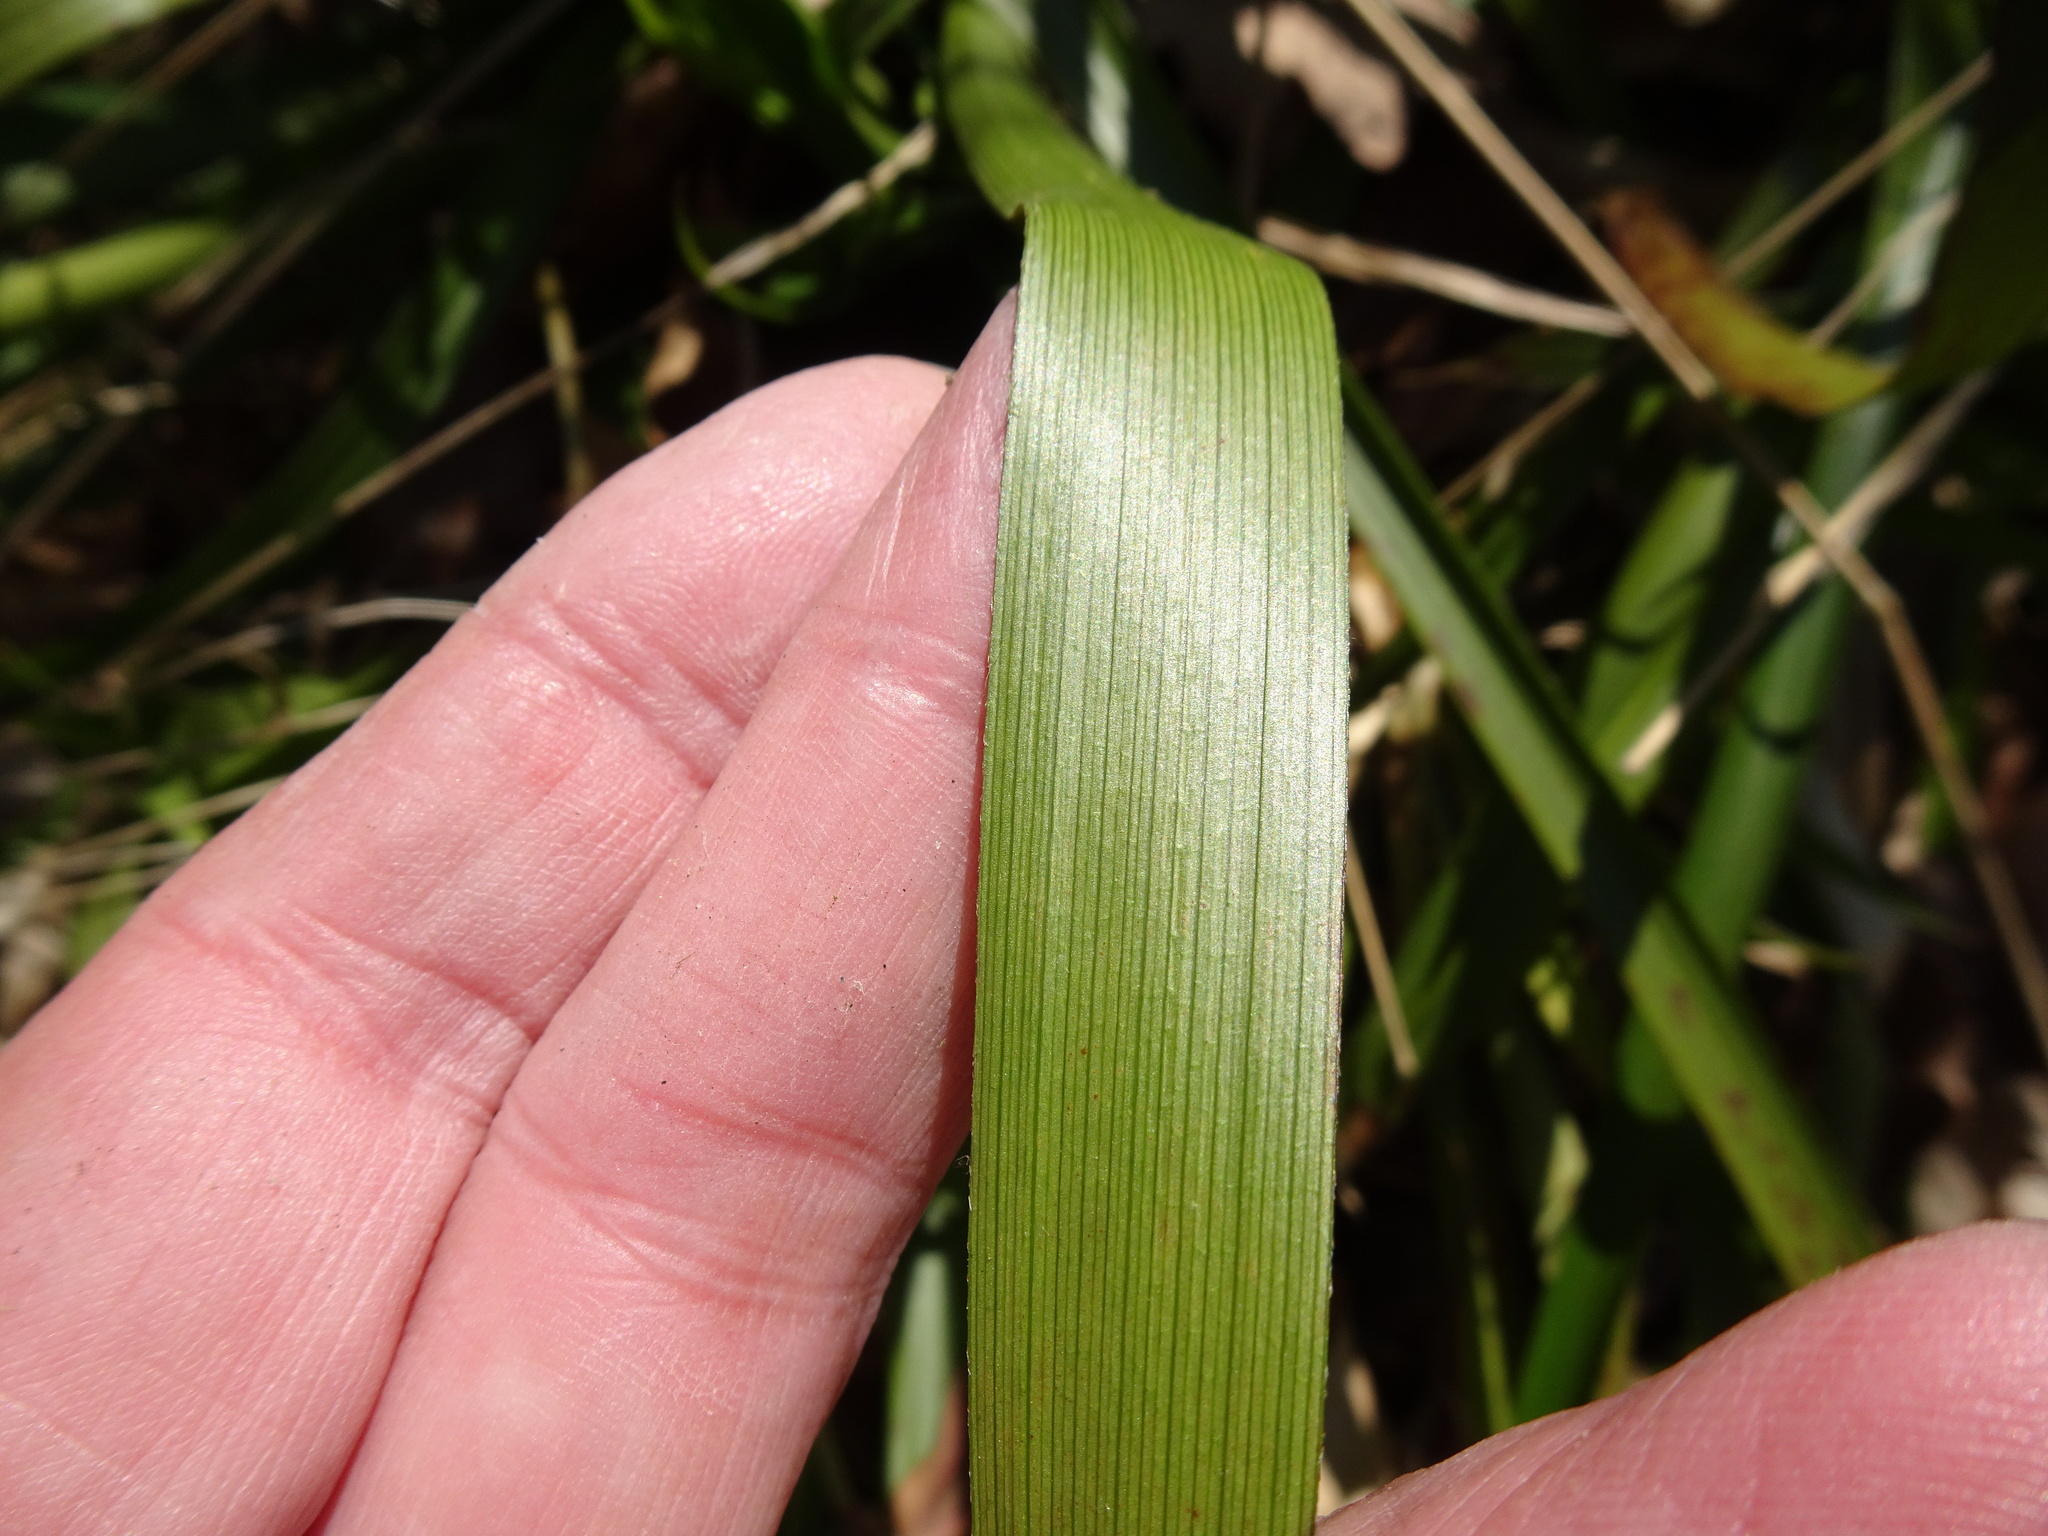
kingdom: Plantae
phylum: Tracheophyta
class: Liliopsida
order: Poales
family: Juncaceae
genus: Luzula
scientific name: Luzula sylvatica
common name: Great wood-rush
